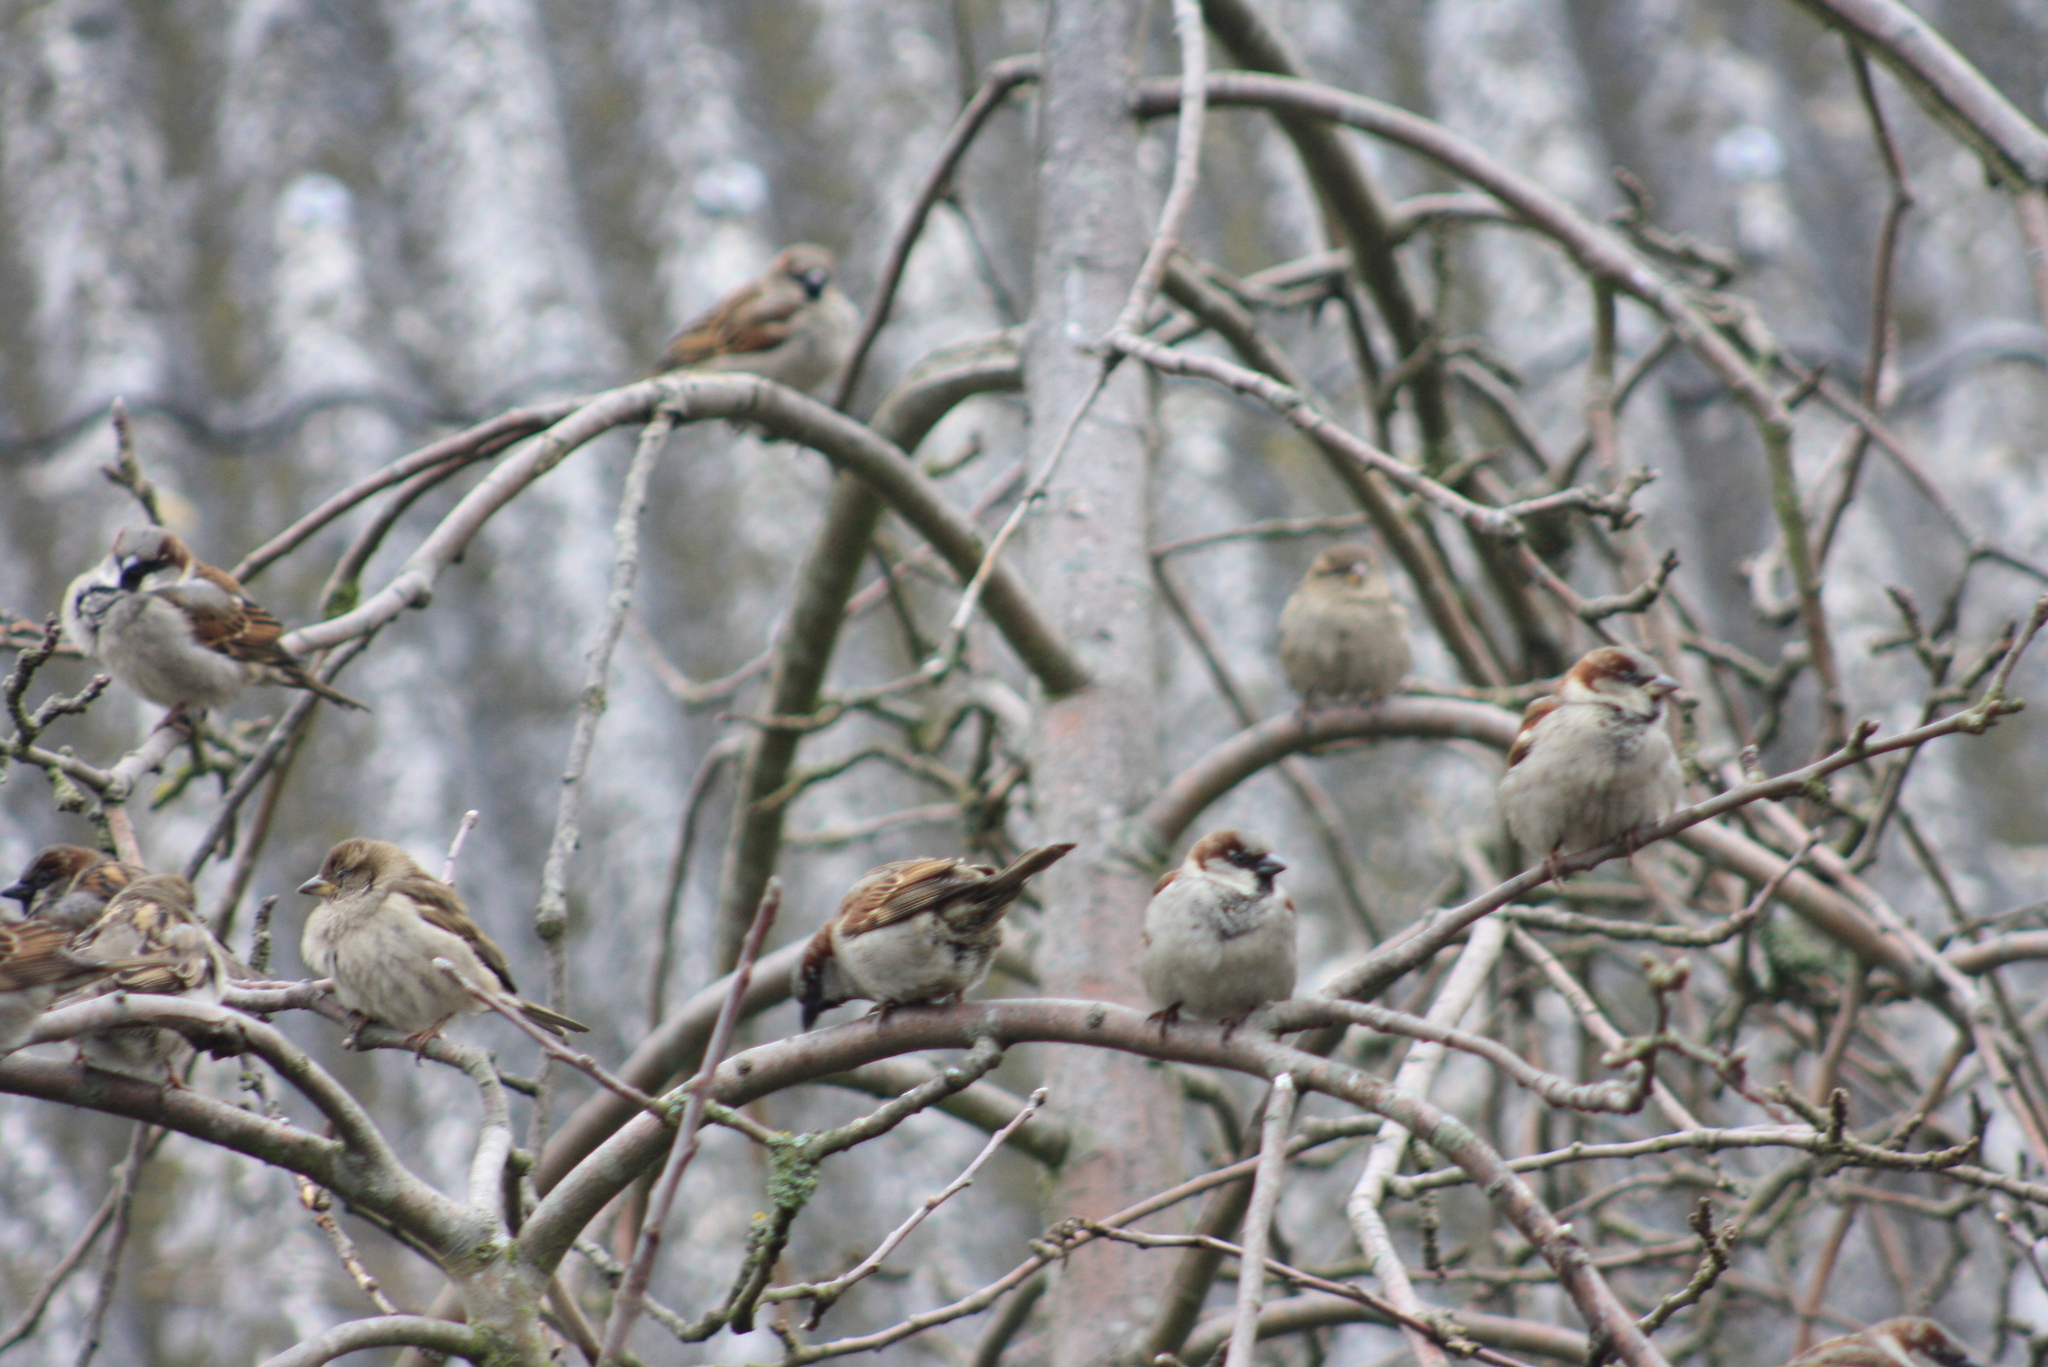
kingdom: Animalia
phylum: Chordata
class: Aves
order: Passeriformes
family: Passeridae
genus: Passer
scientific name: Passer domesticus
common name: House sparrow
